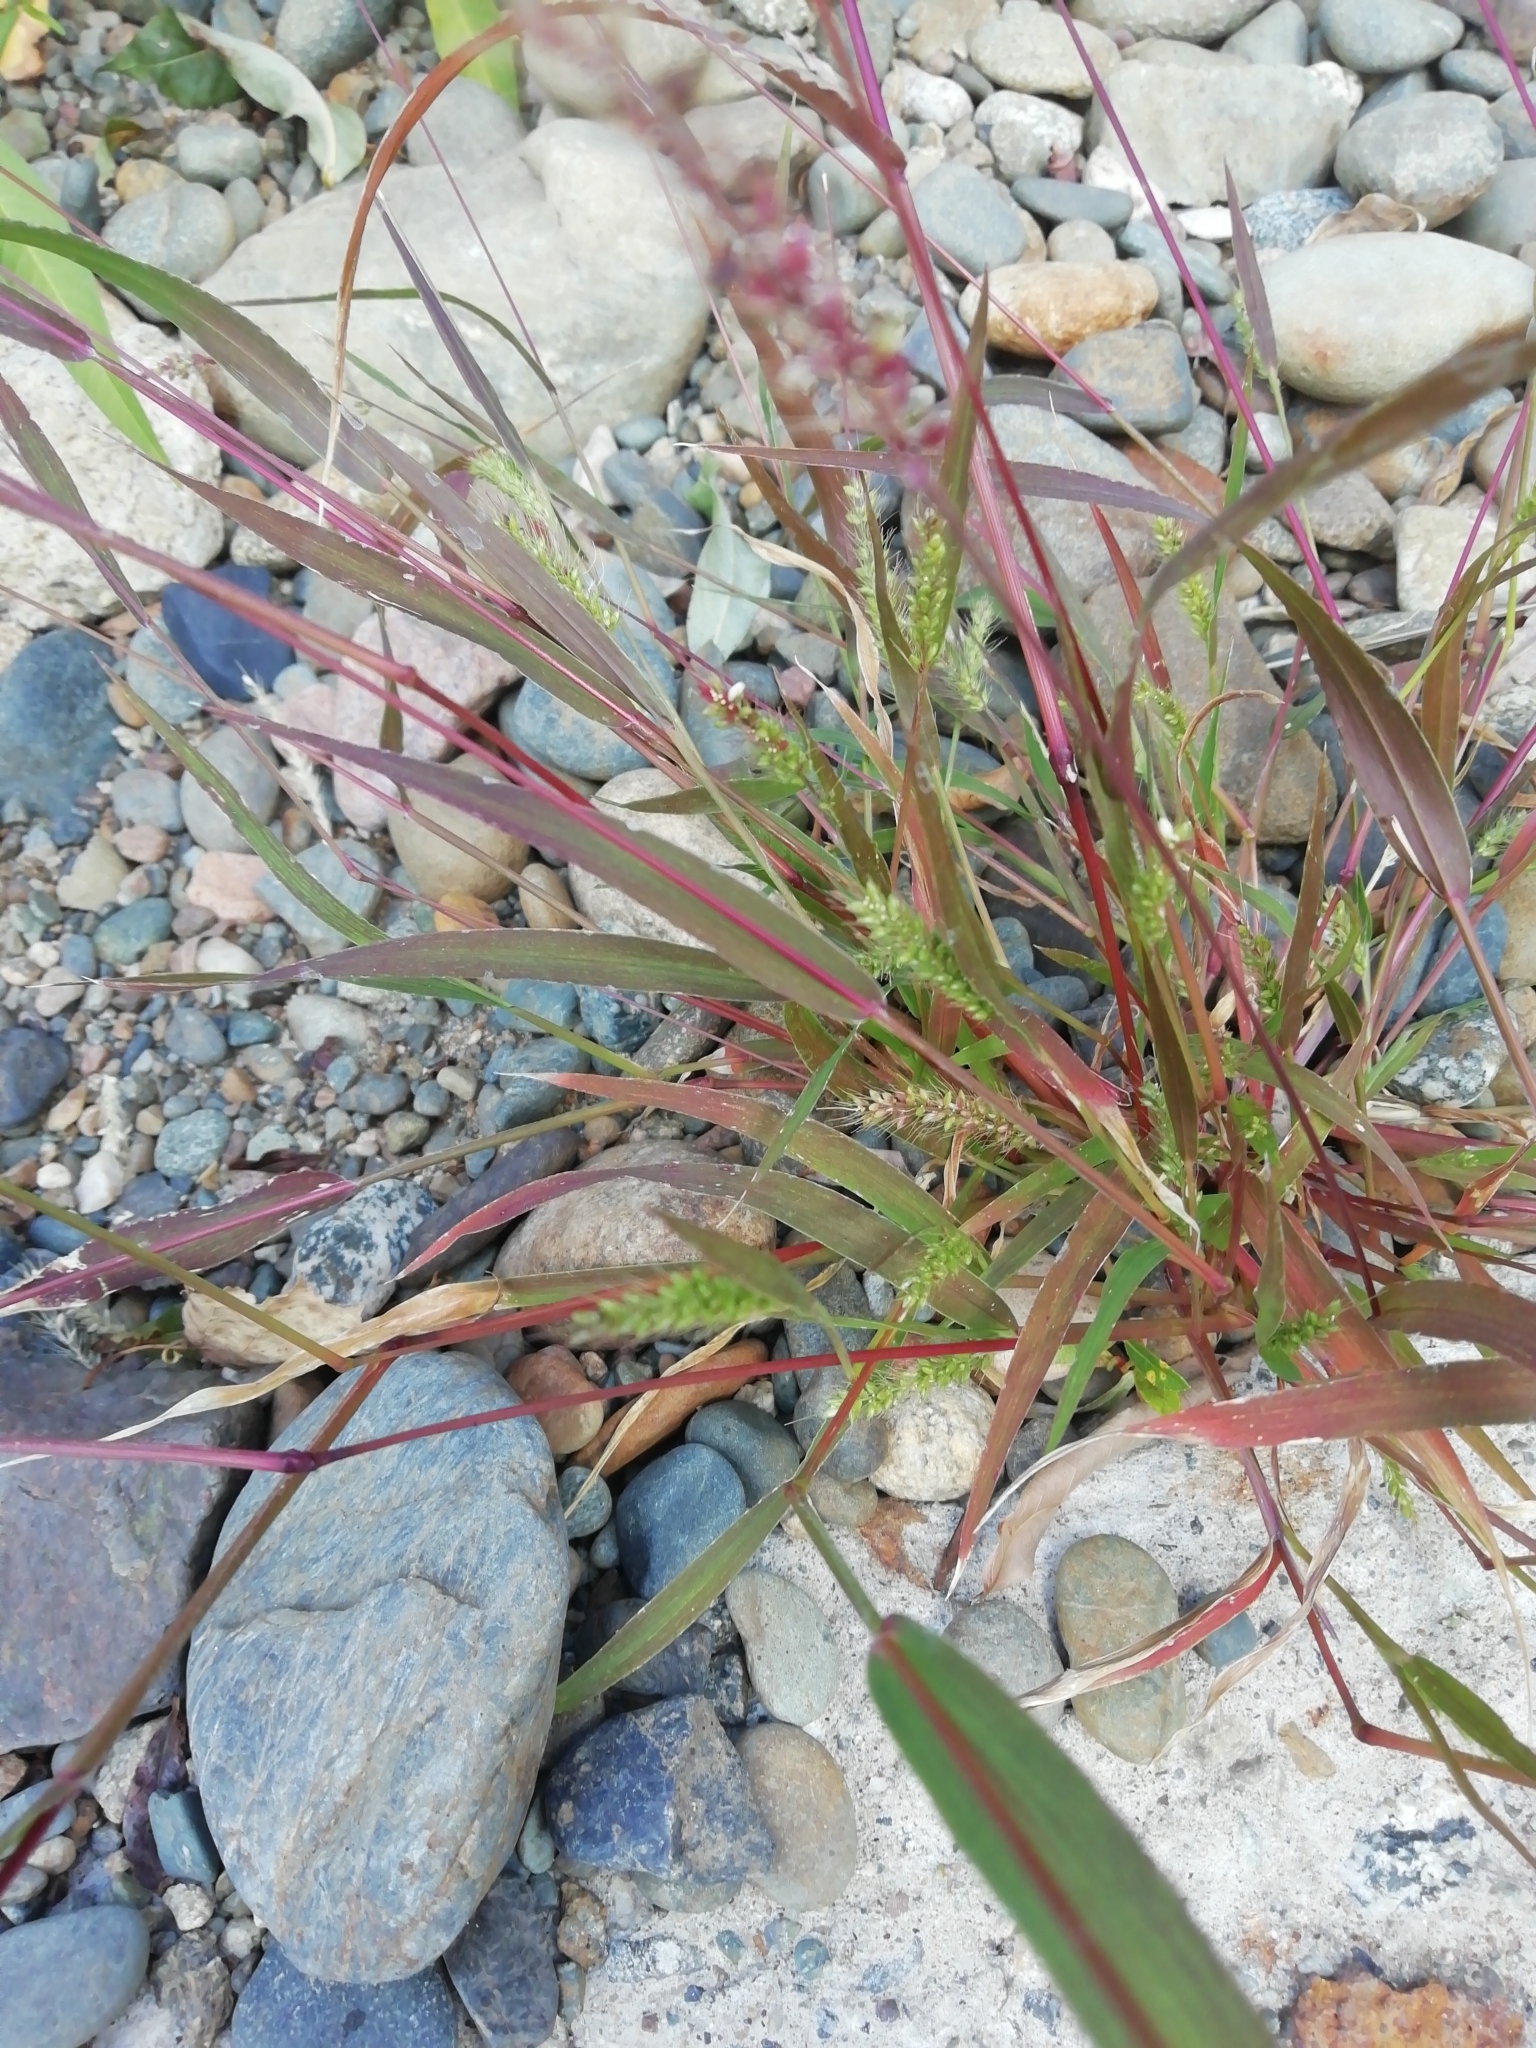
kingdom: Plantae
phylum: Tracheophyta
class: Liliopsida
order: Poales
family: Poaceae
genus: Setaria
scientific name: Setaria viridis
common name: Green bristlegrass
